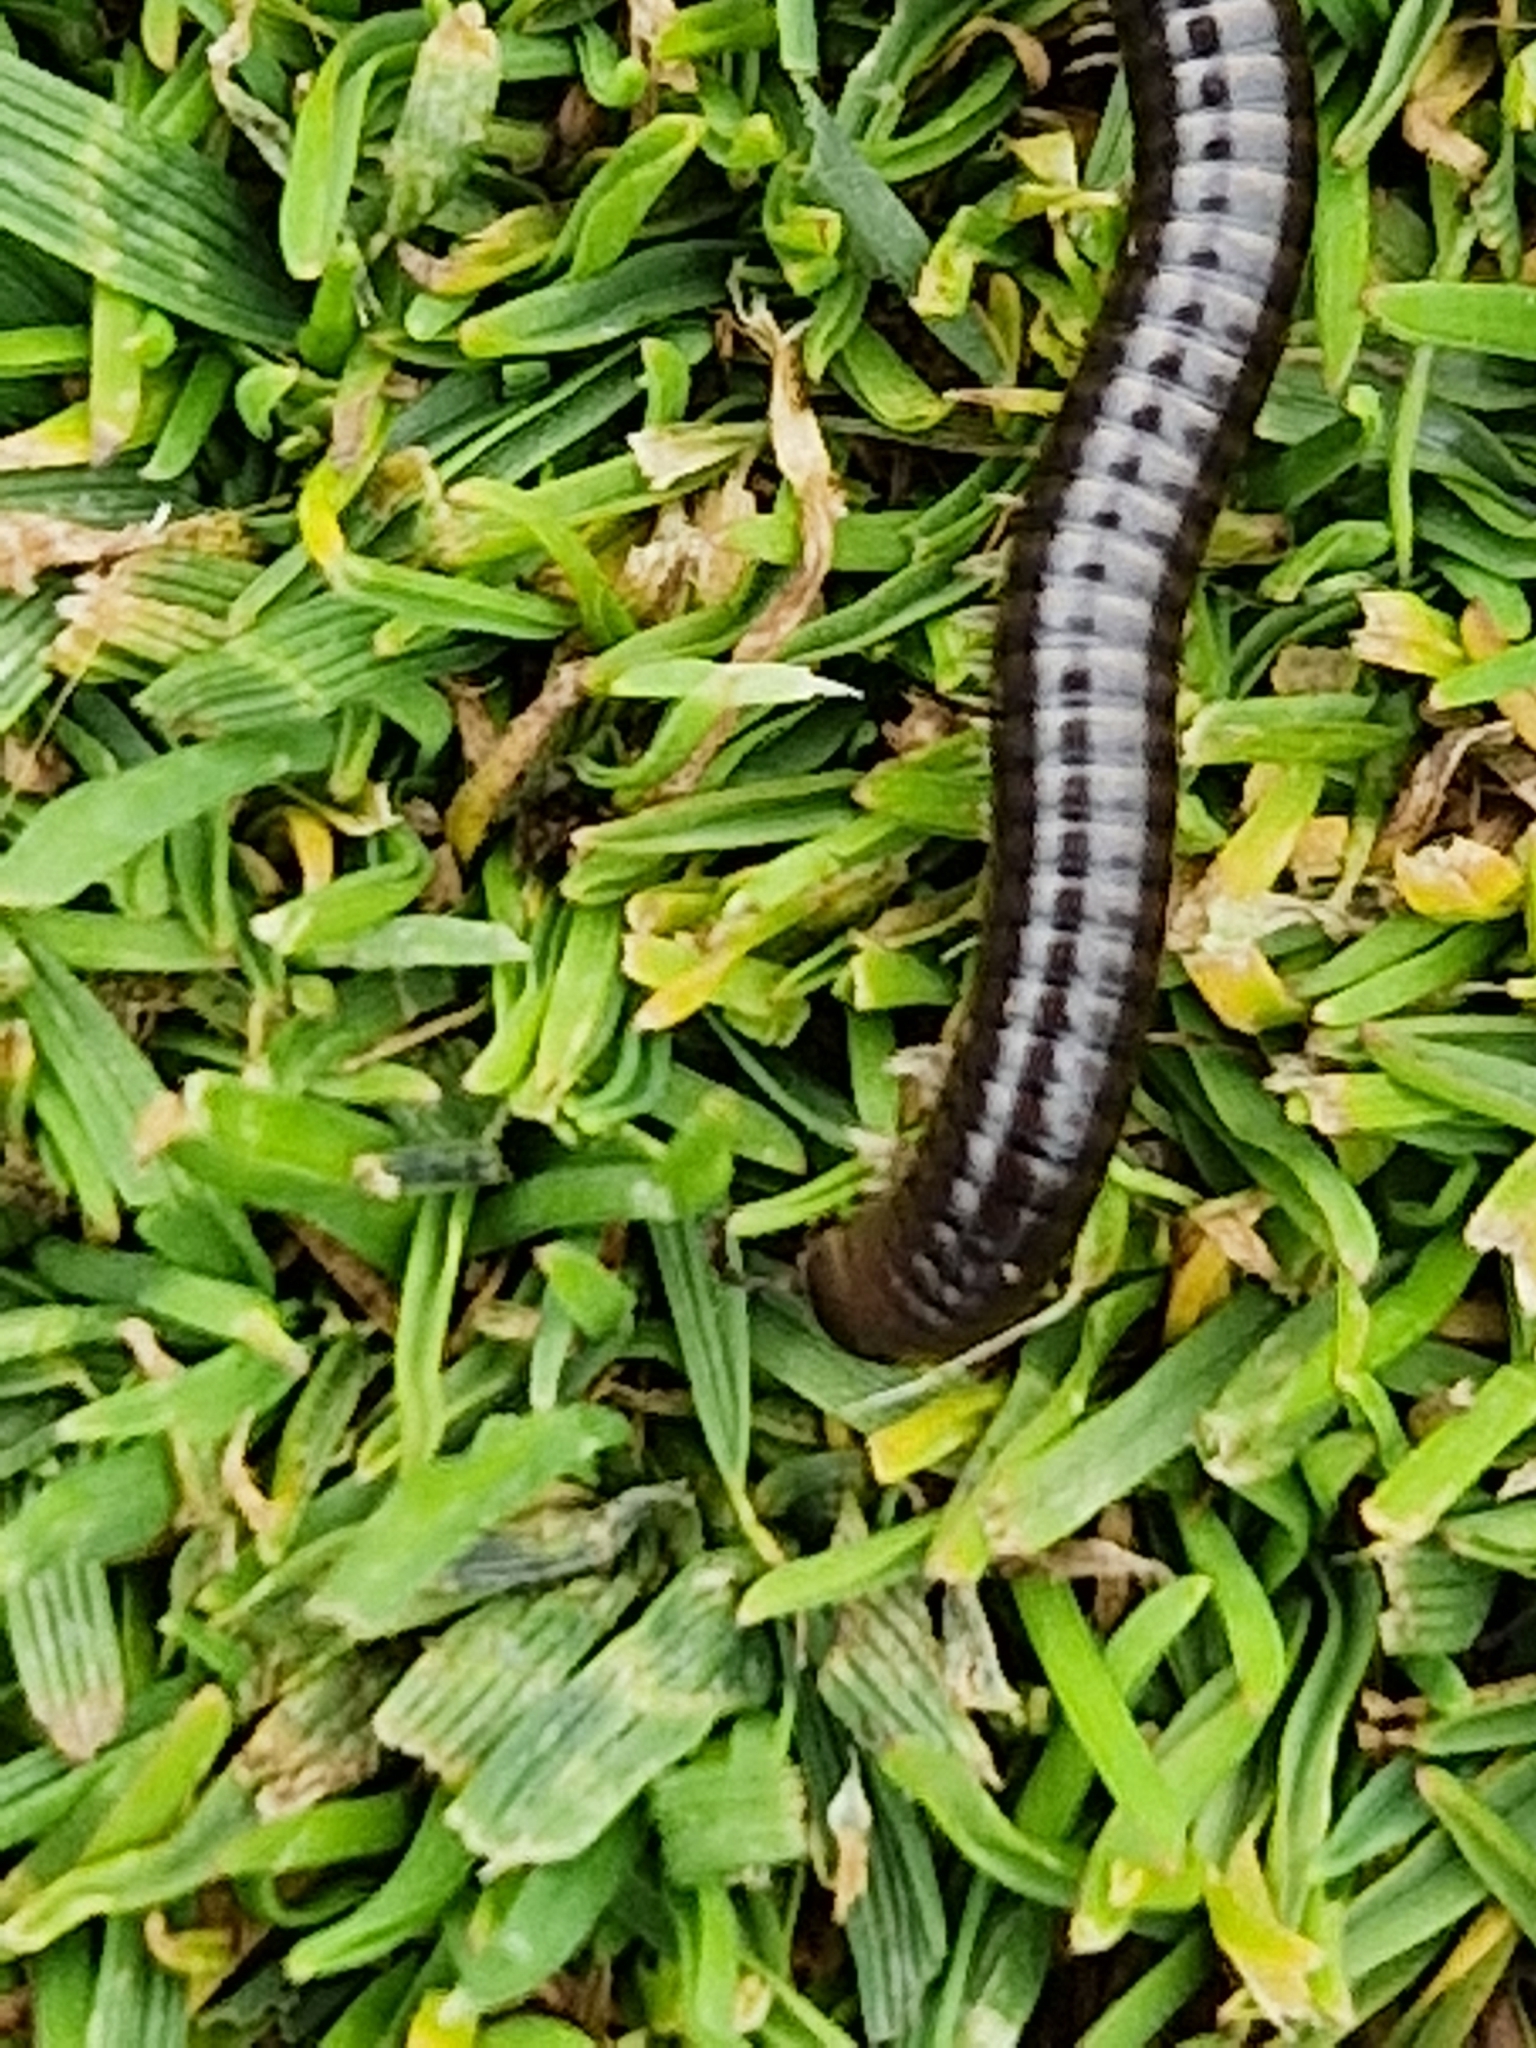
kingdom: Animalia
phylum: Arthropoda
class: Diplopoda
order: Julida
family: Julidae
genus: Cylindroiulus
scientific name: Cylindroiulus caeruleocinctus
